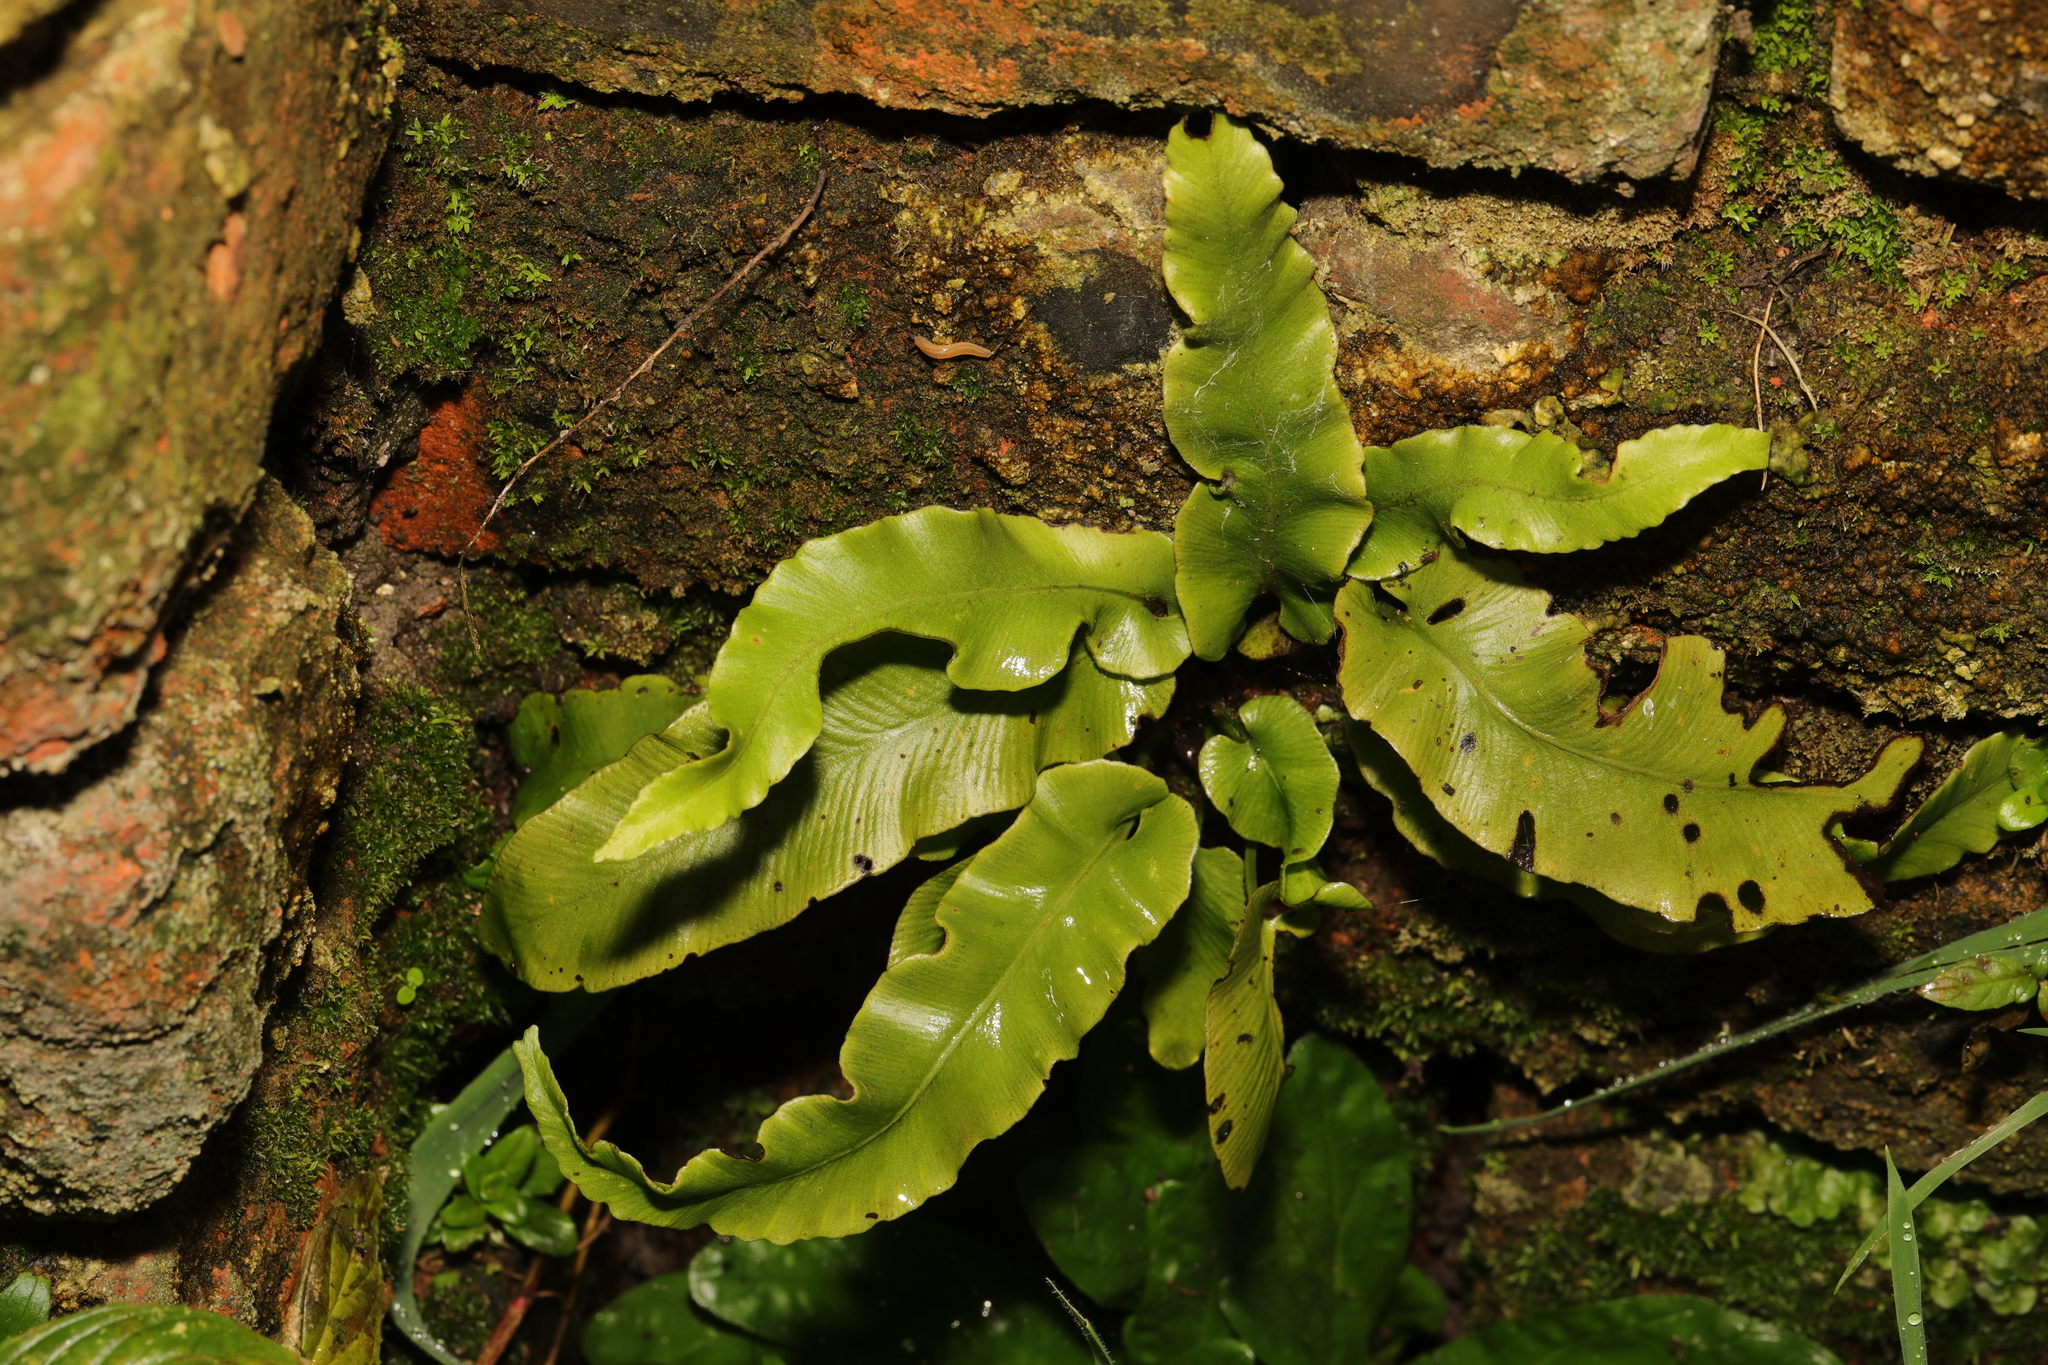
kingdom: Plantae
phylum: Tracheophyta
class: Polypodiopsida
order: Polypodiales
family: Aspleniaceae
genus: Asplenium
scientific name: Asplenium scolopendrium
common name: Hart's-tongue fern
